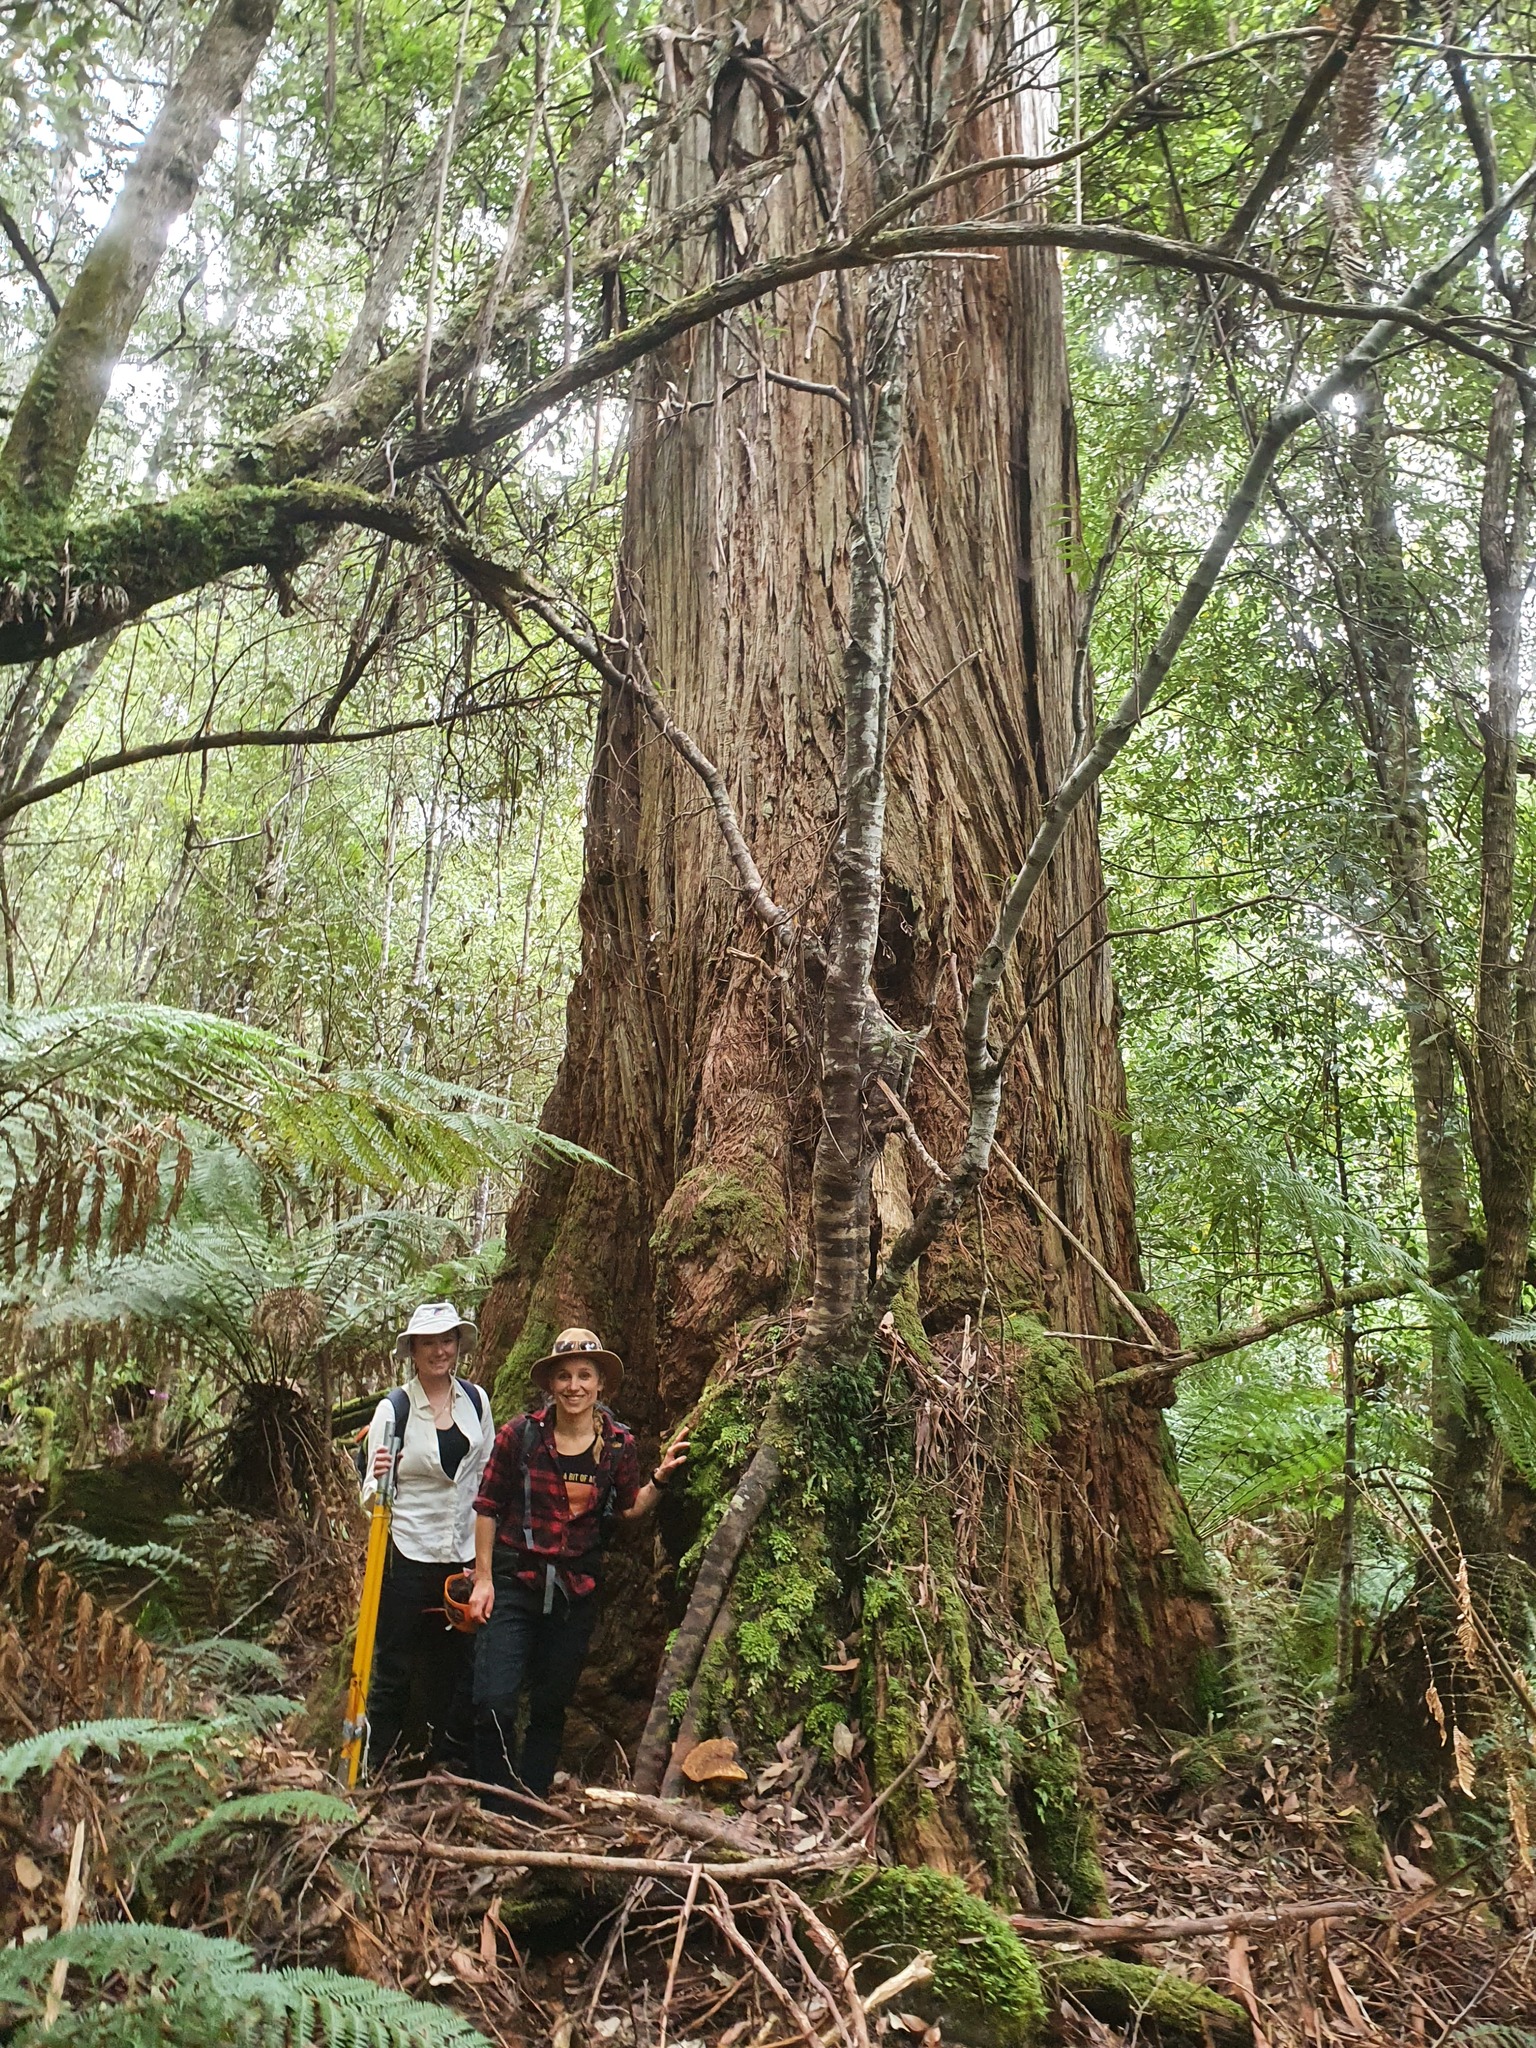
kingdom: Plantae
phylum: Tracheophyta
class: Polypodiopsida
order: Polypodiales
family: Polypodiaceae
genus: Notogrammitis
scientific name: Notogrammitis heterophylla
